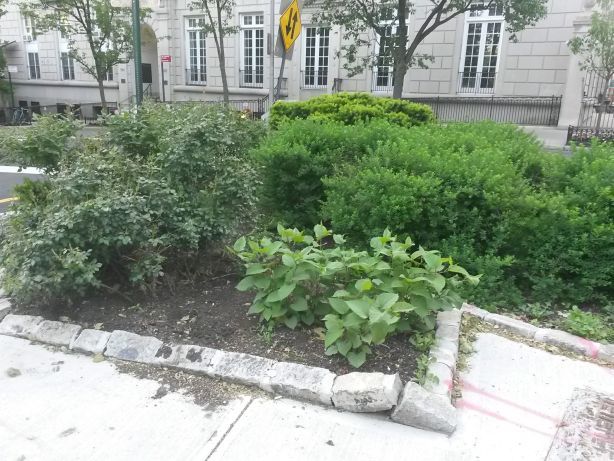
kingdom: Plantae
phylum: Tracheophyta
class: Magnoliopsida
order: Caryophyllales
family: Polygonaceae
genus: Reynoutria
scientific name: Reynoutria japonica
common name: Japanese knotweed
